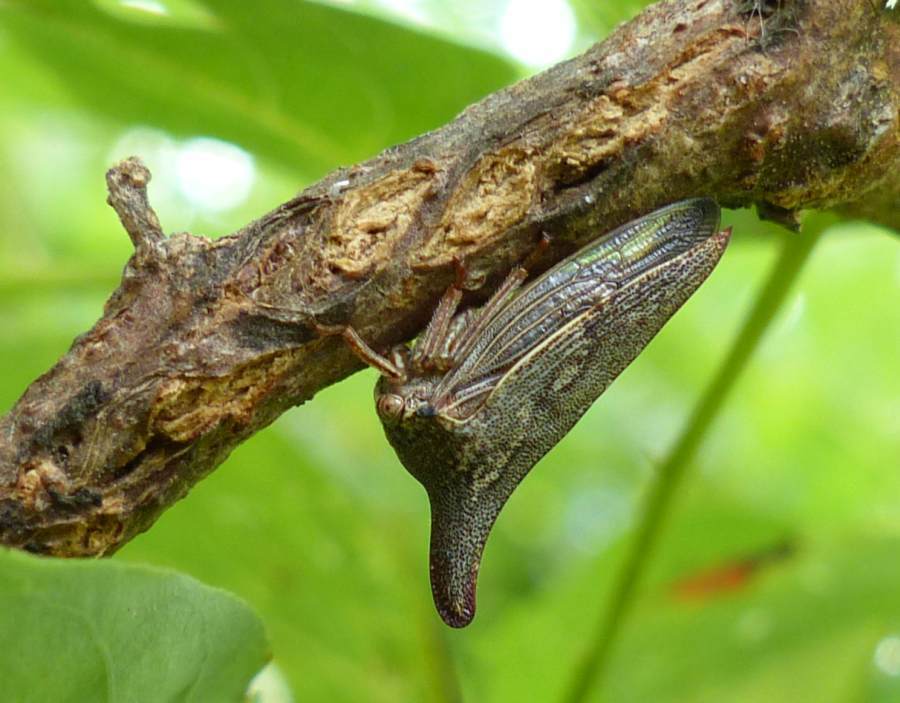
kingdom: Animalia
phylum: Arthropoda
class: Insecta
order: Hemiptera
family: Membracidae
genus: Thelia
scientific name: Thelia bimaculata
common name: Locust treehopper
